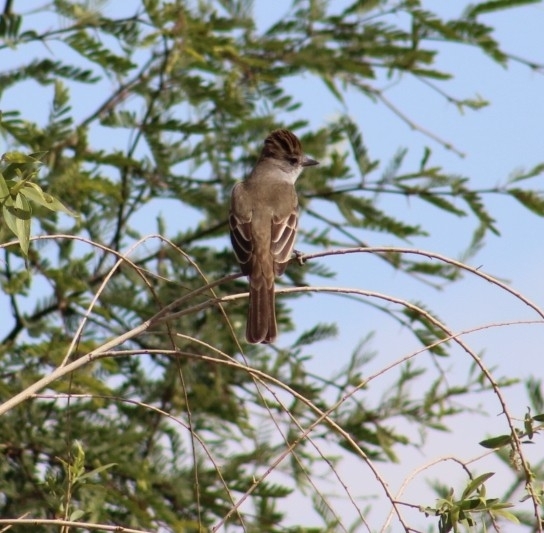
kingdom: Animalia
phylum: Chordata
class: Aves
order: Passeriformes
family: Tyrannidae
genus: Myiarchus
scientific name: Myiarchus cinerascens
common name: Ash-throated flycatcher
